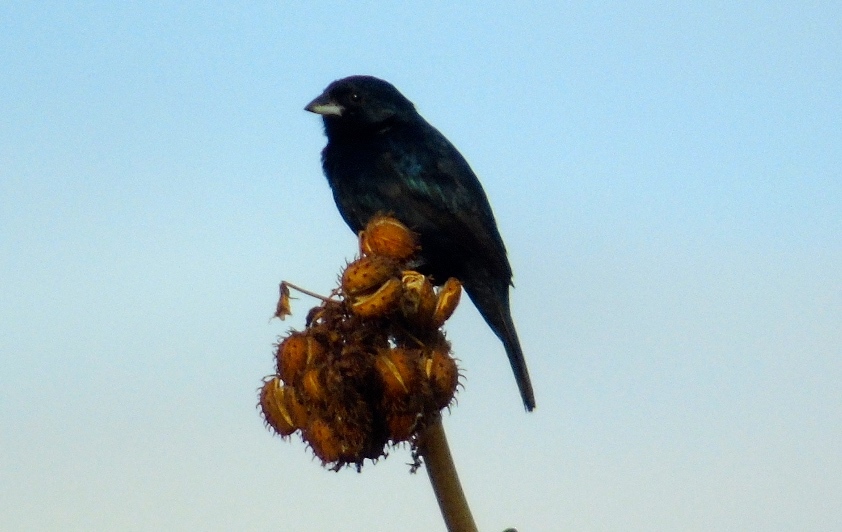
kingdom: Animalia
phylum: Chordata
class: Aves
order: Passeriformes
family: Thraupidae
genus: Volatinia
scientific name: Volatinia jacarina
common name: Blue-black grassquit
